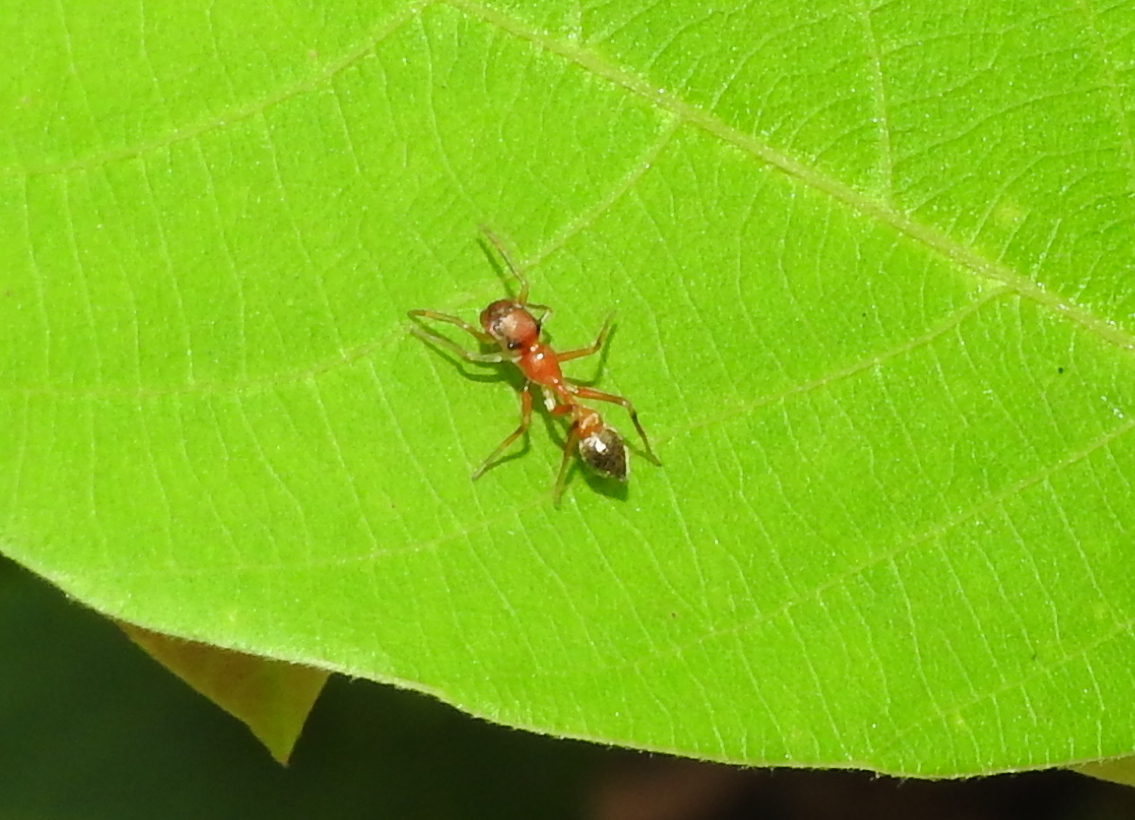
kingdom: Animalia
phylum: Arthropoda
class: Arachnida
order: Araneae
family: Salticidae
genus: Myrmaplata
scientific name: Myrmaplata plataleoides
